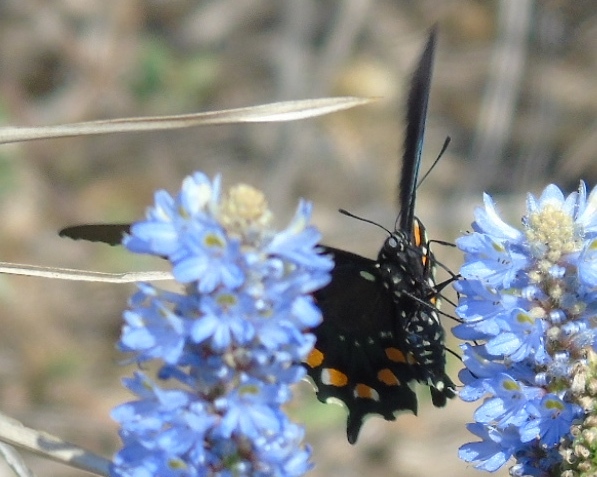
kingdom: Animalia
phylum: Arthropoda
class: Insecta
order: Lepidoptera
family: Papilionidae
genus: Battus
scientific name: Battus philenor
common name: Pipevine swallowtail
